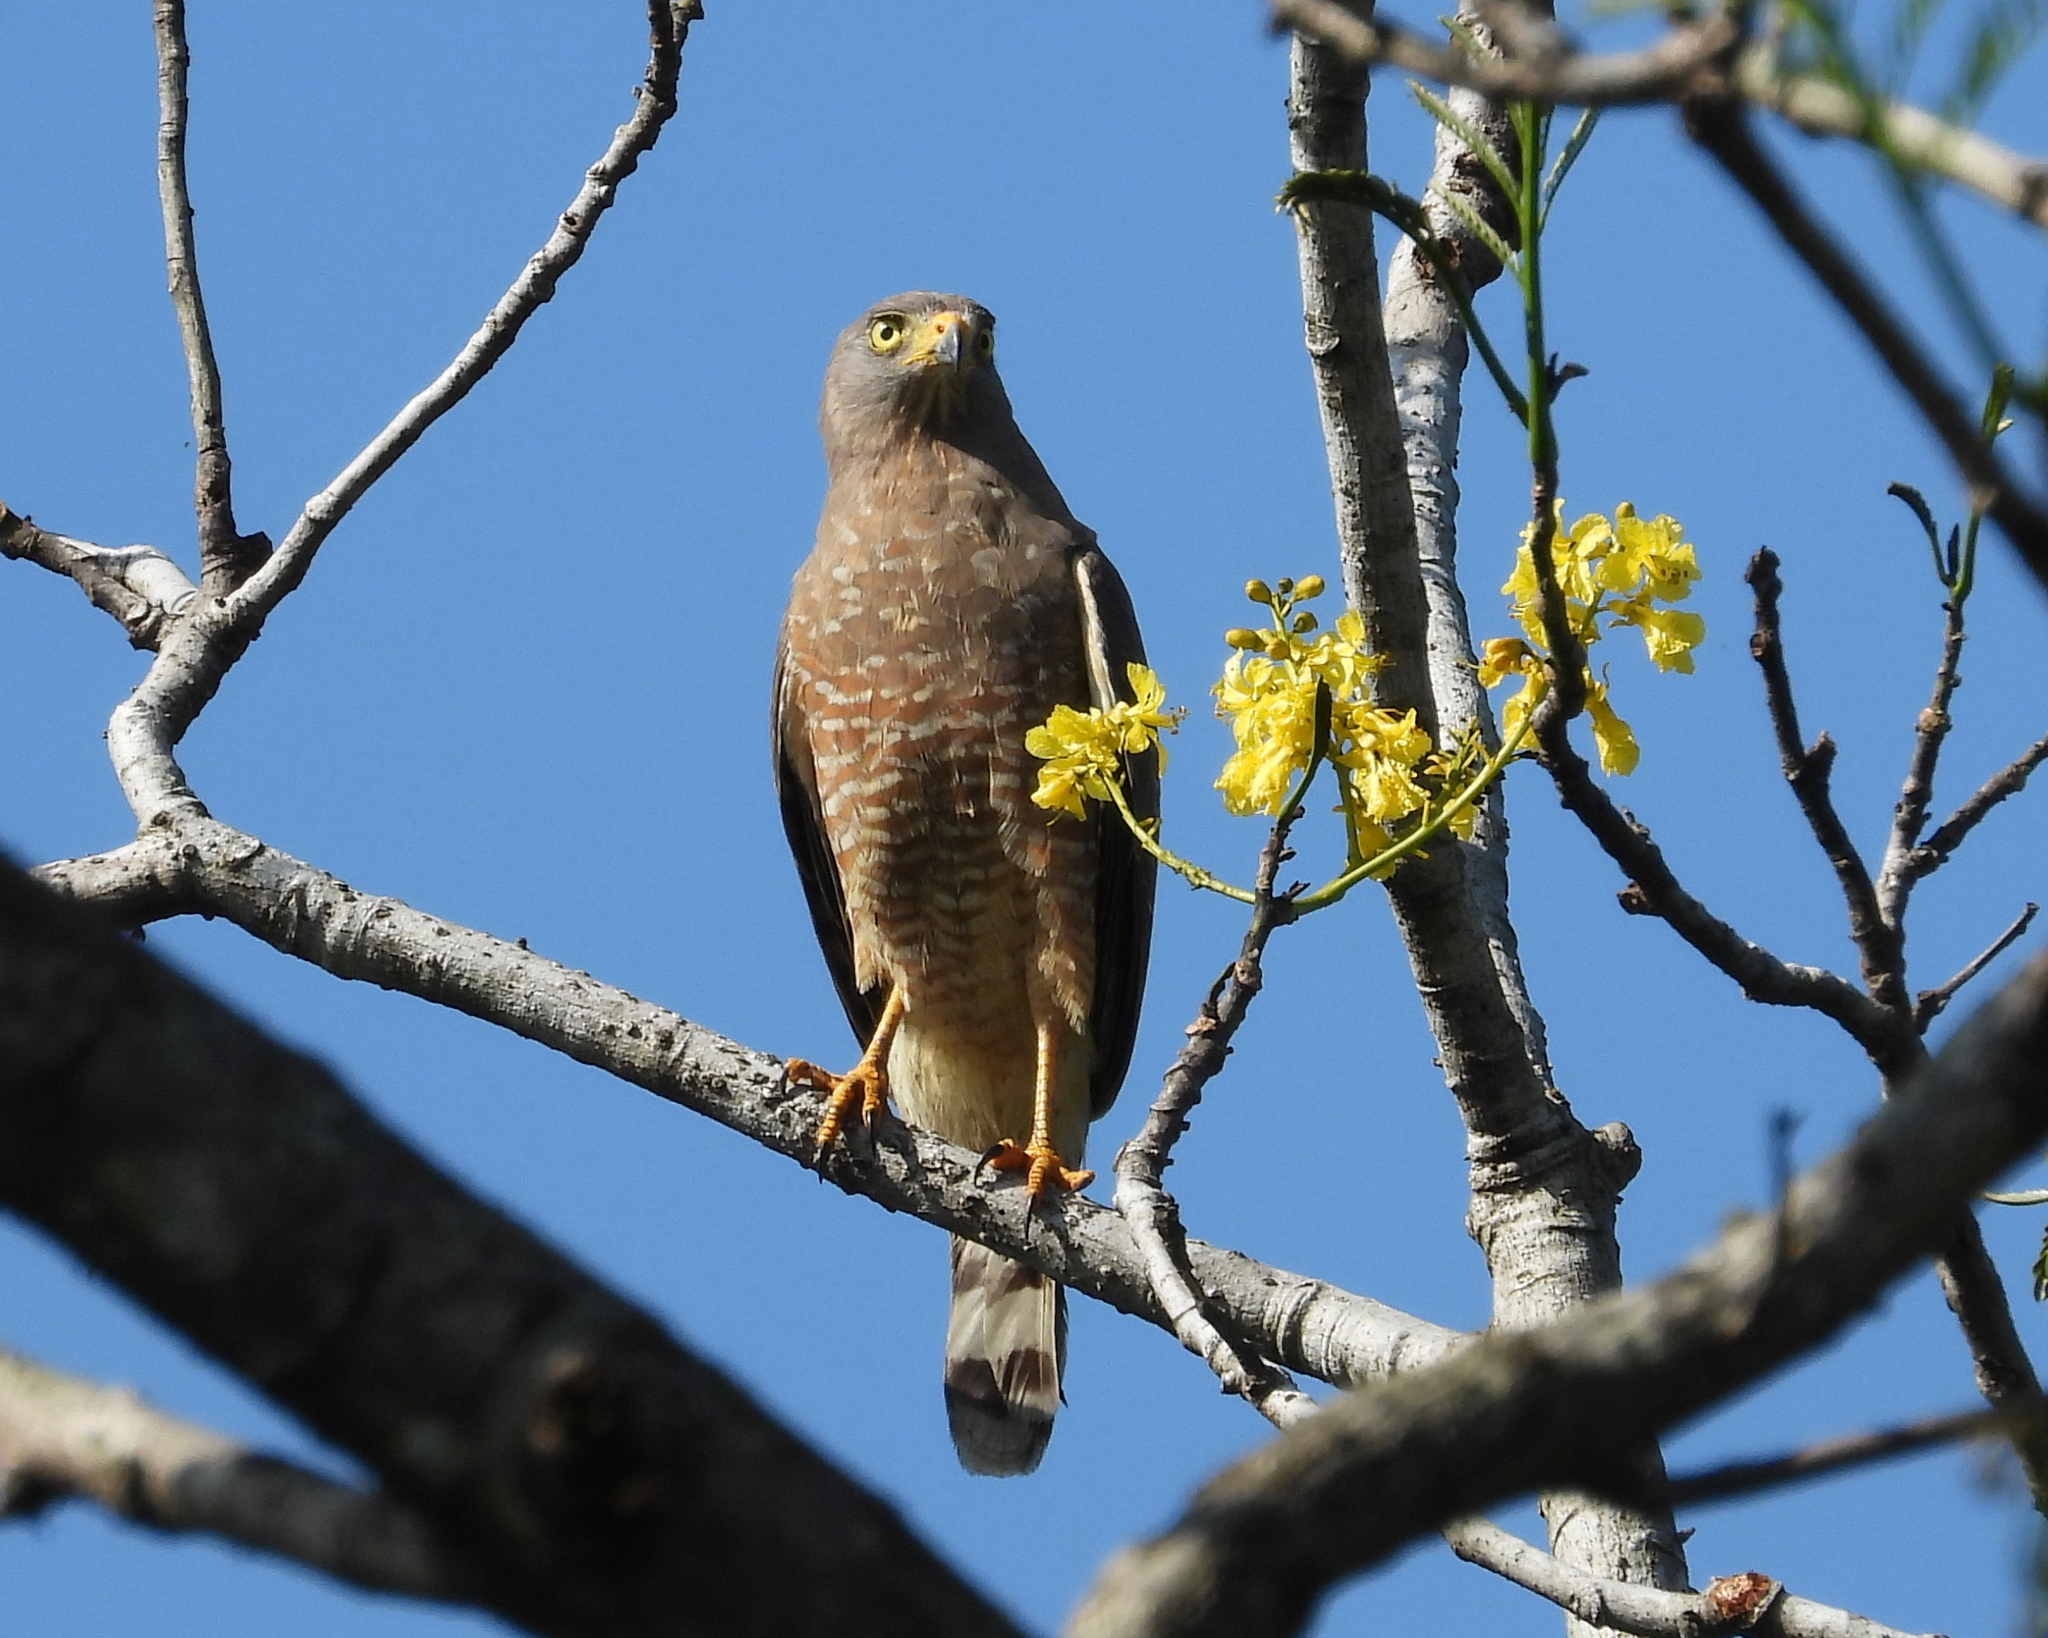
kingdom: Animalia
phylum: Chordata
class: Aves
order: Accipitriformes
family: Accipitridae
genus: Rupornis
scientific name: Rupornis magnirostris
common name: Roadside hawk
